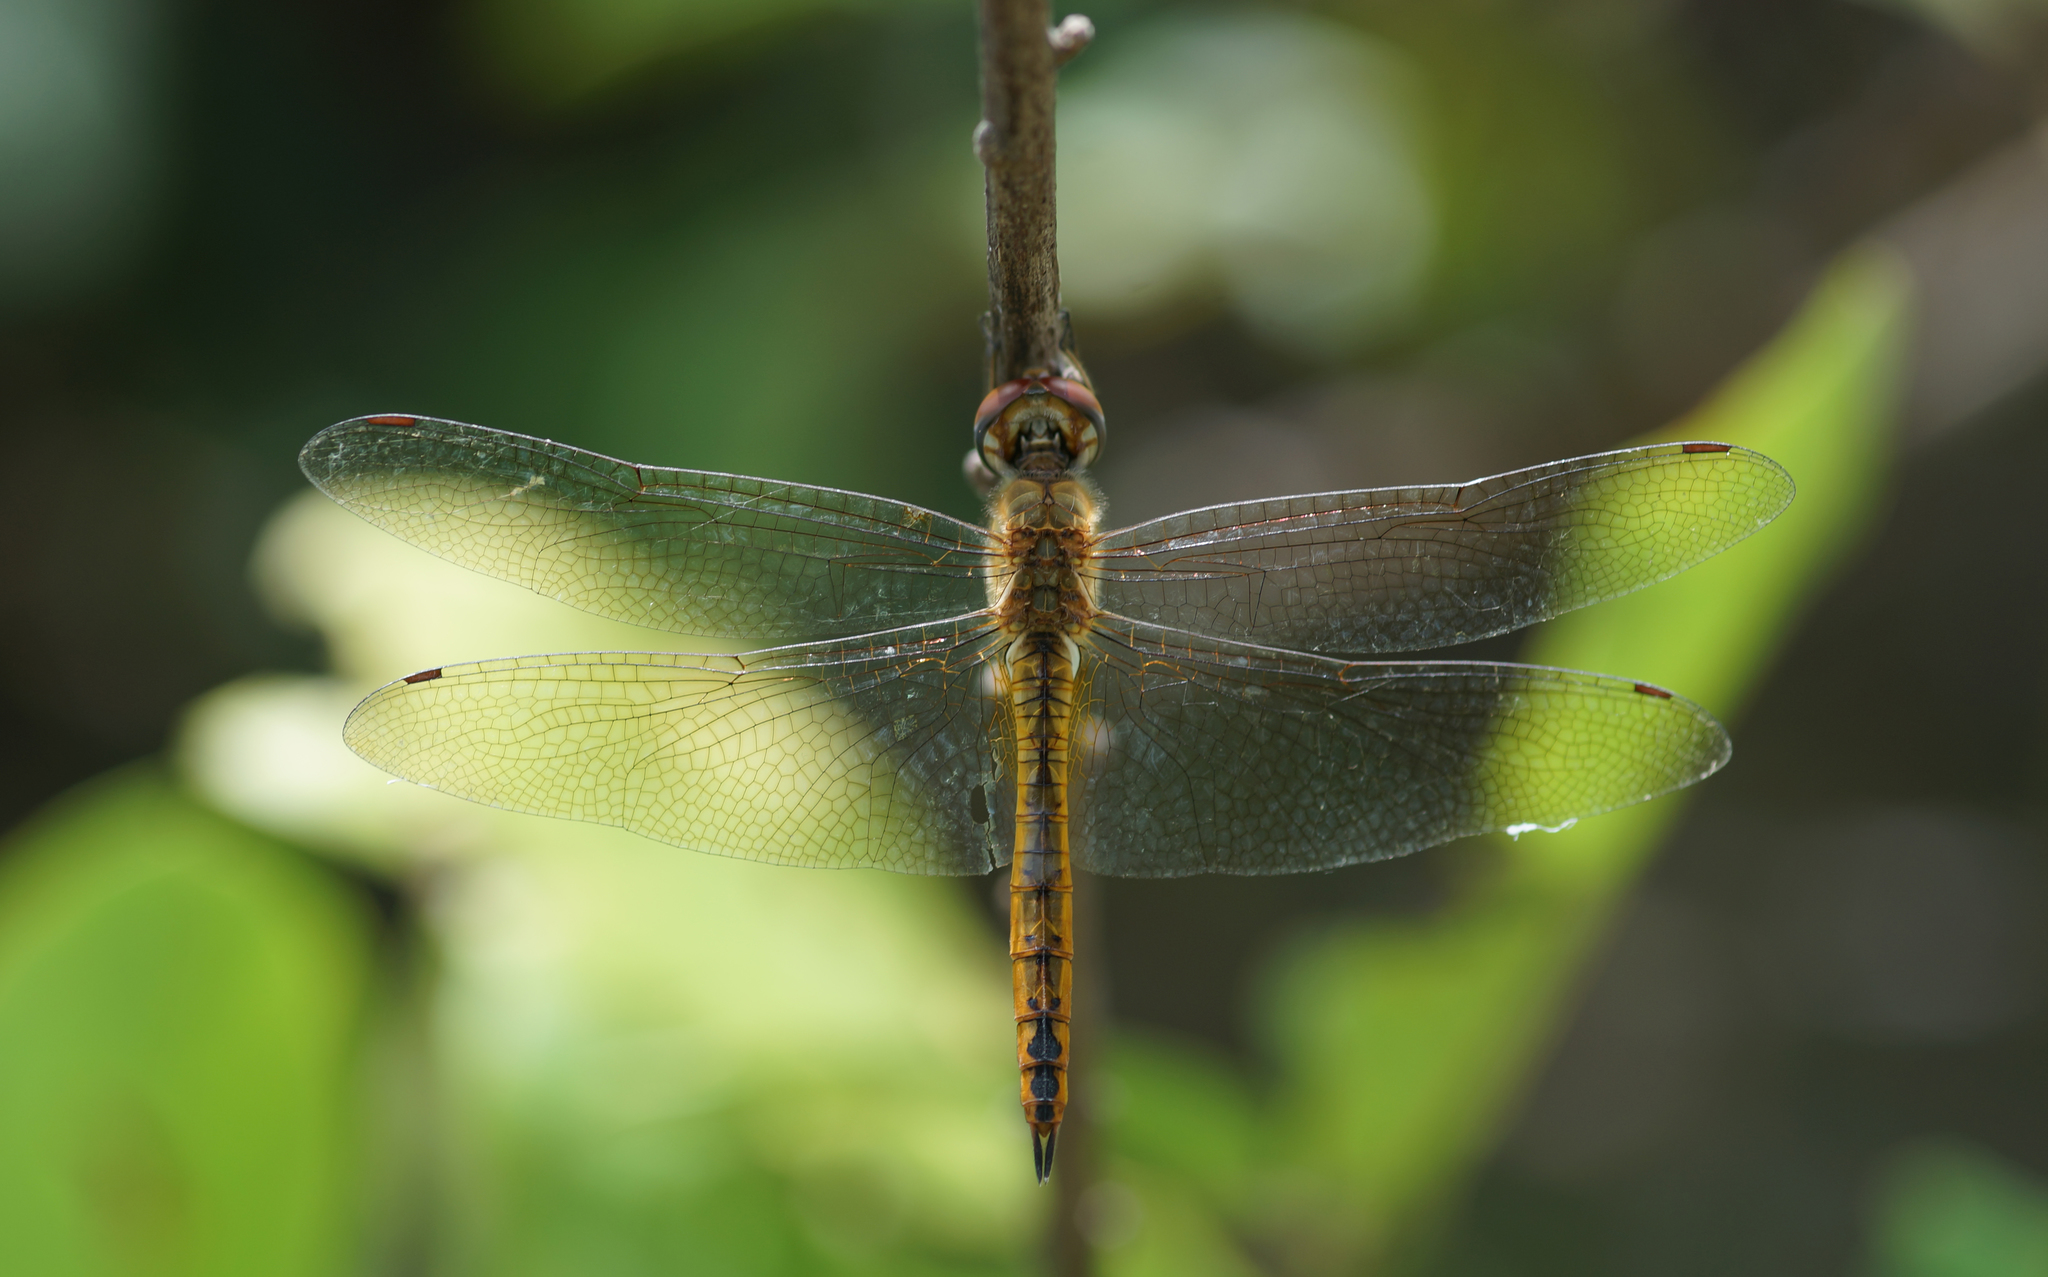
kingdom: Animalia
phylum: Arthropoda
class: Insecta
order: Odonata
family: Libellulidae
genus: Pantala
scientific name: Pantala flavescens
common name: Wandering glider
